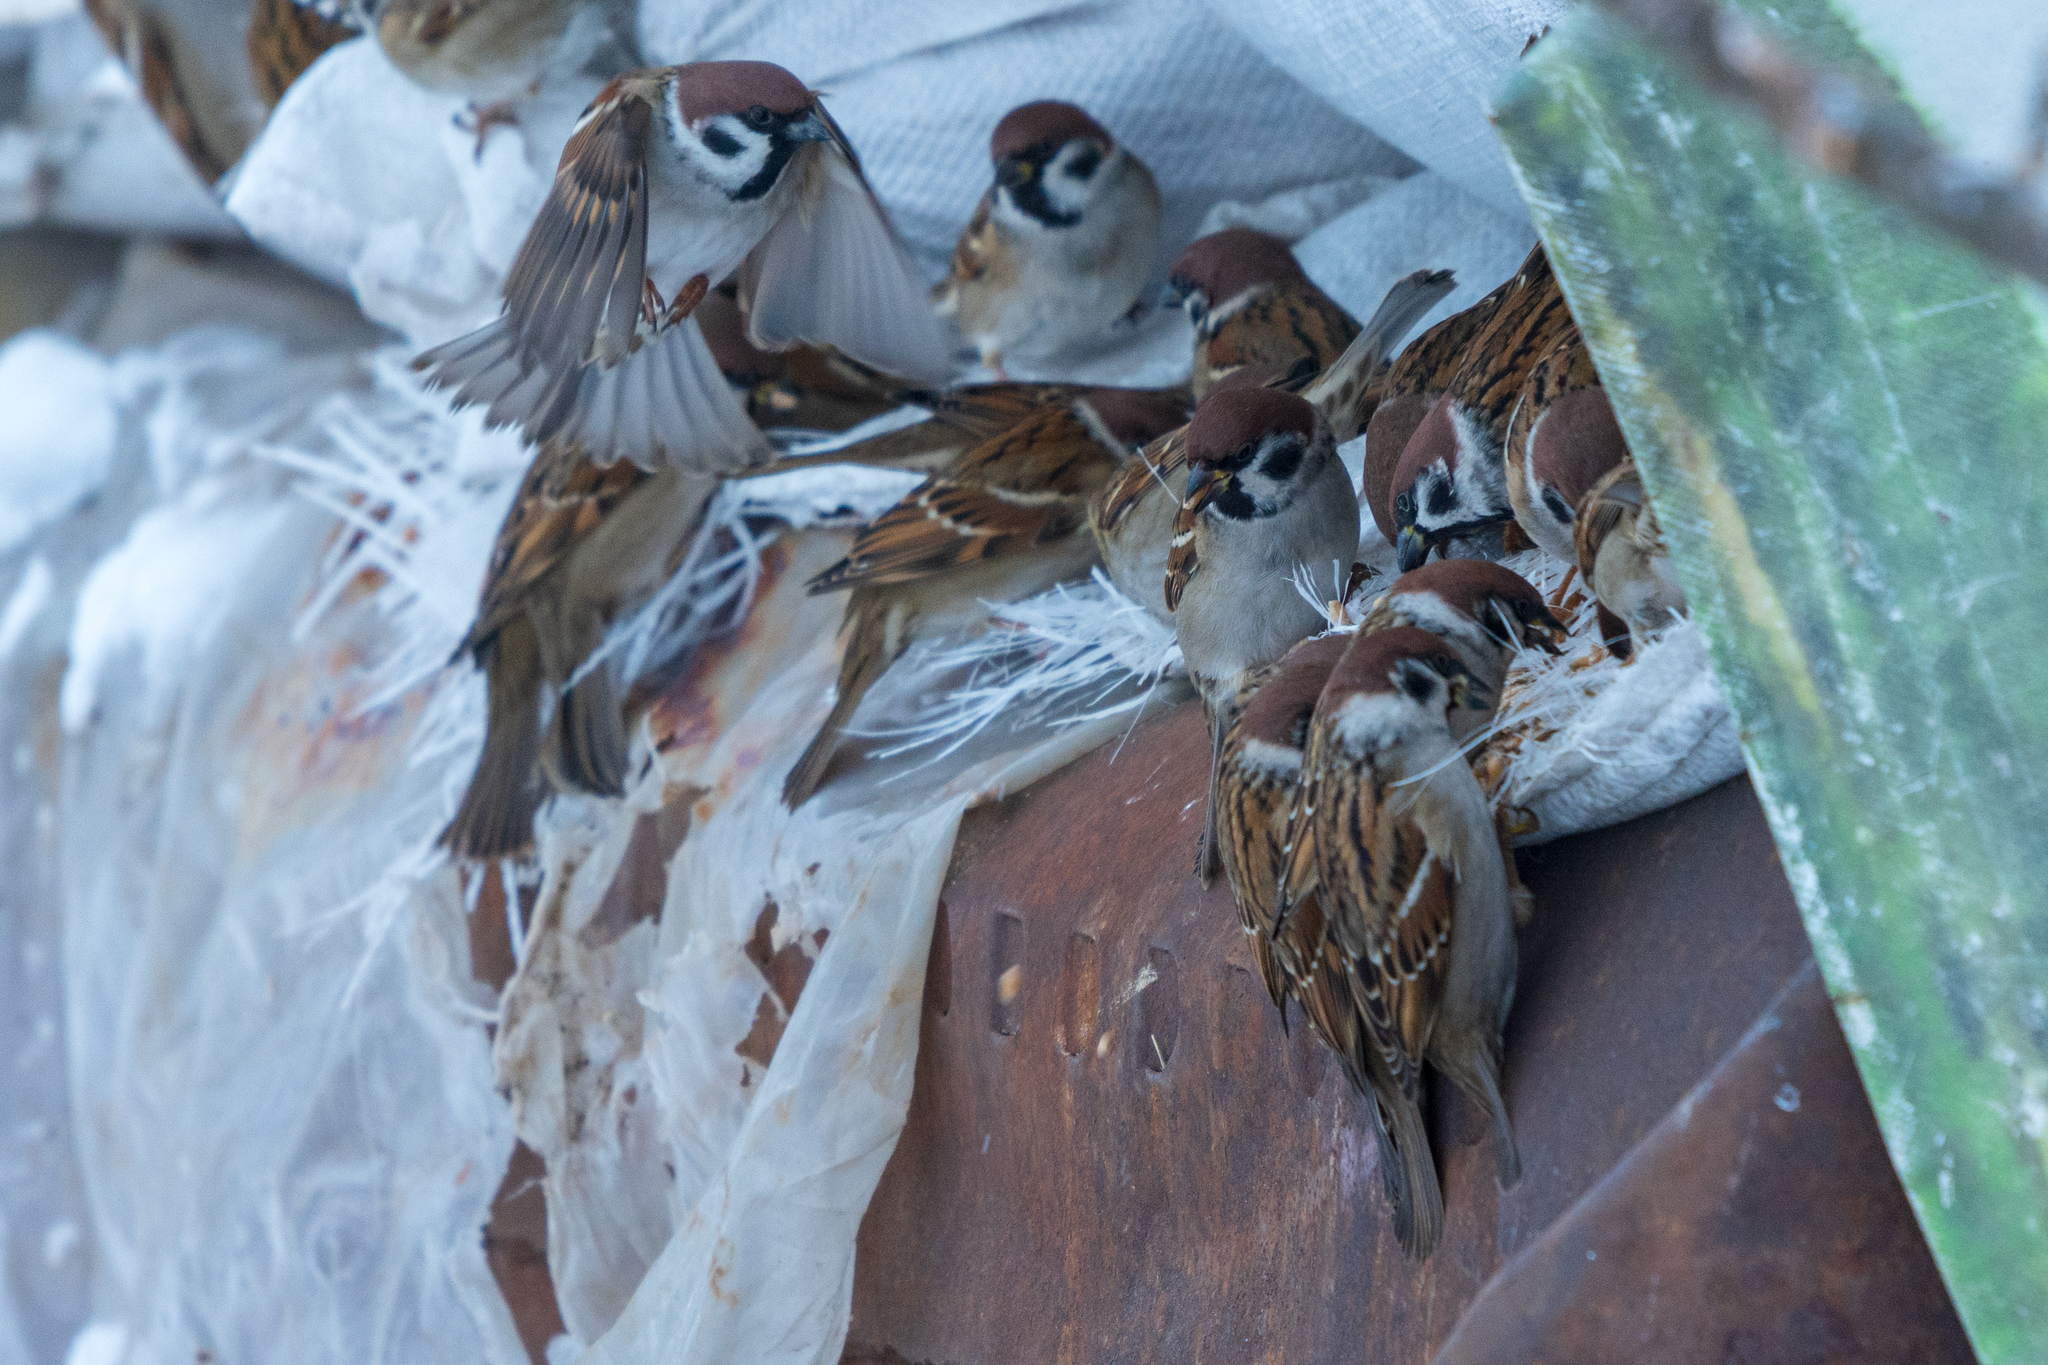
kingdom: Animalia
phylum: Chordata
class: Aves
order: Passeriformes
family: Passeridae
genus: Passer
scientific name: Passer montanus
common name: Eurasian tree sparrow
